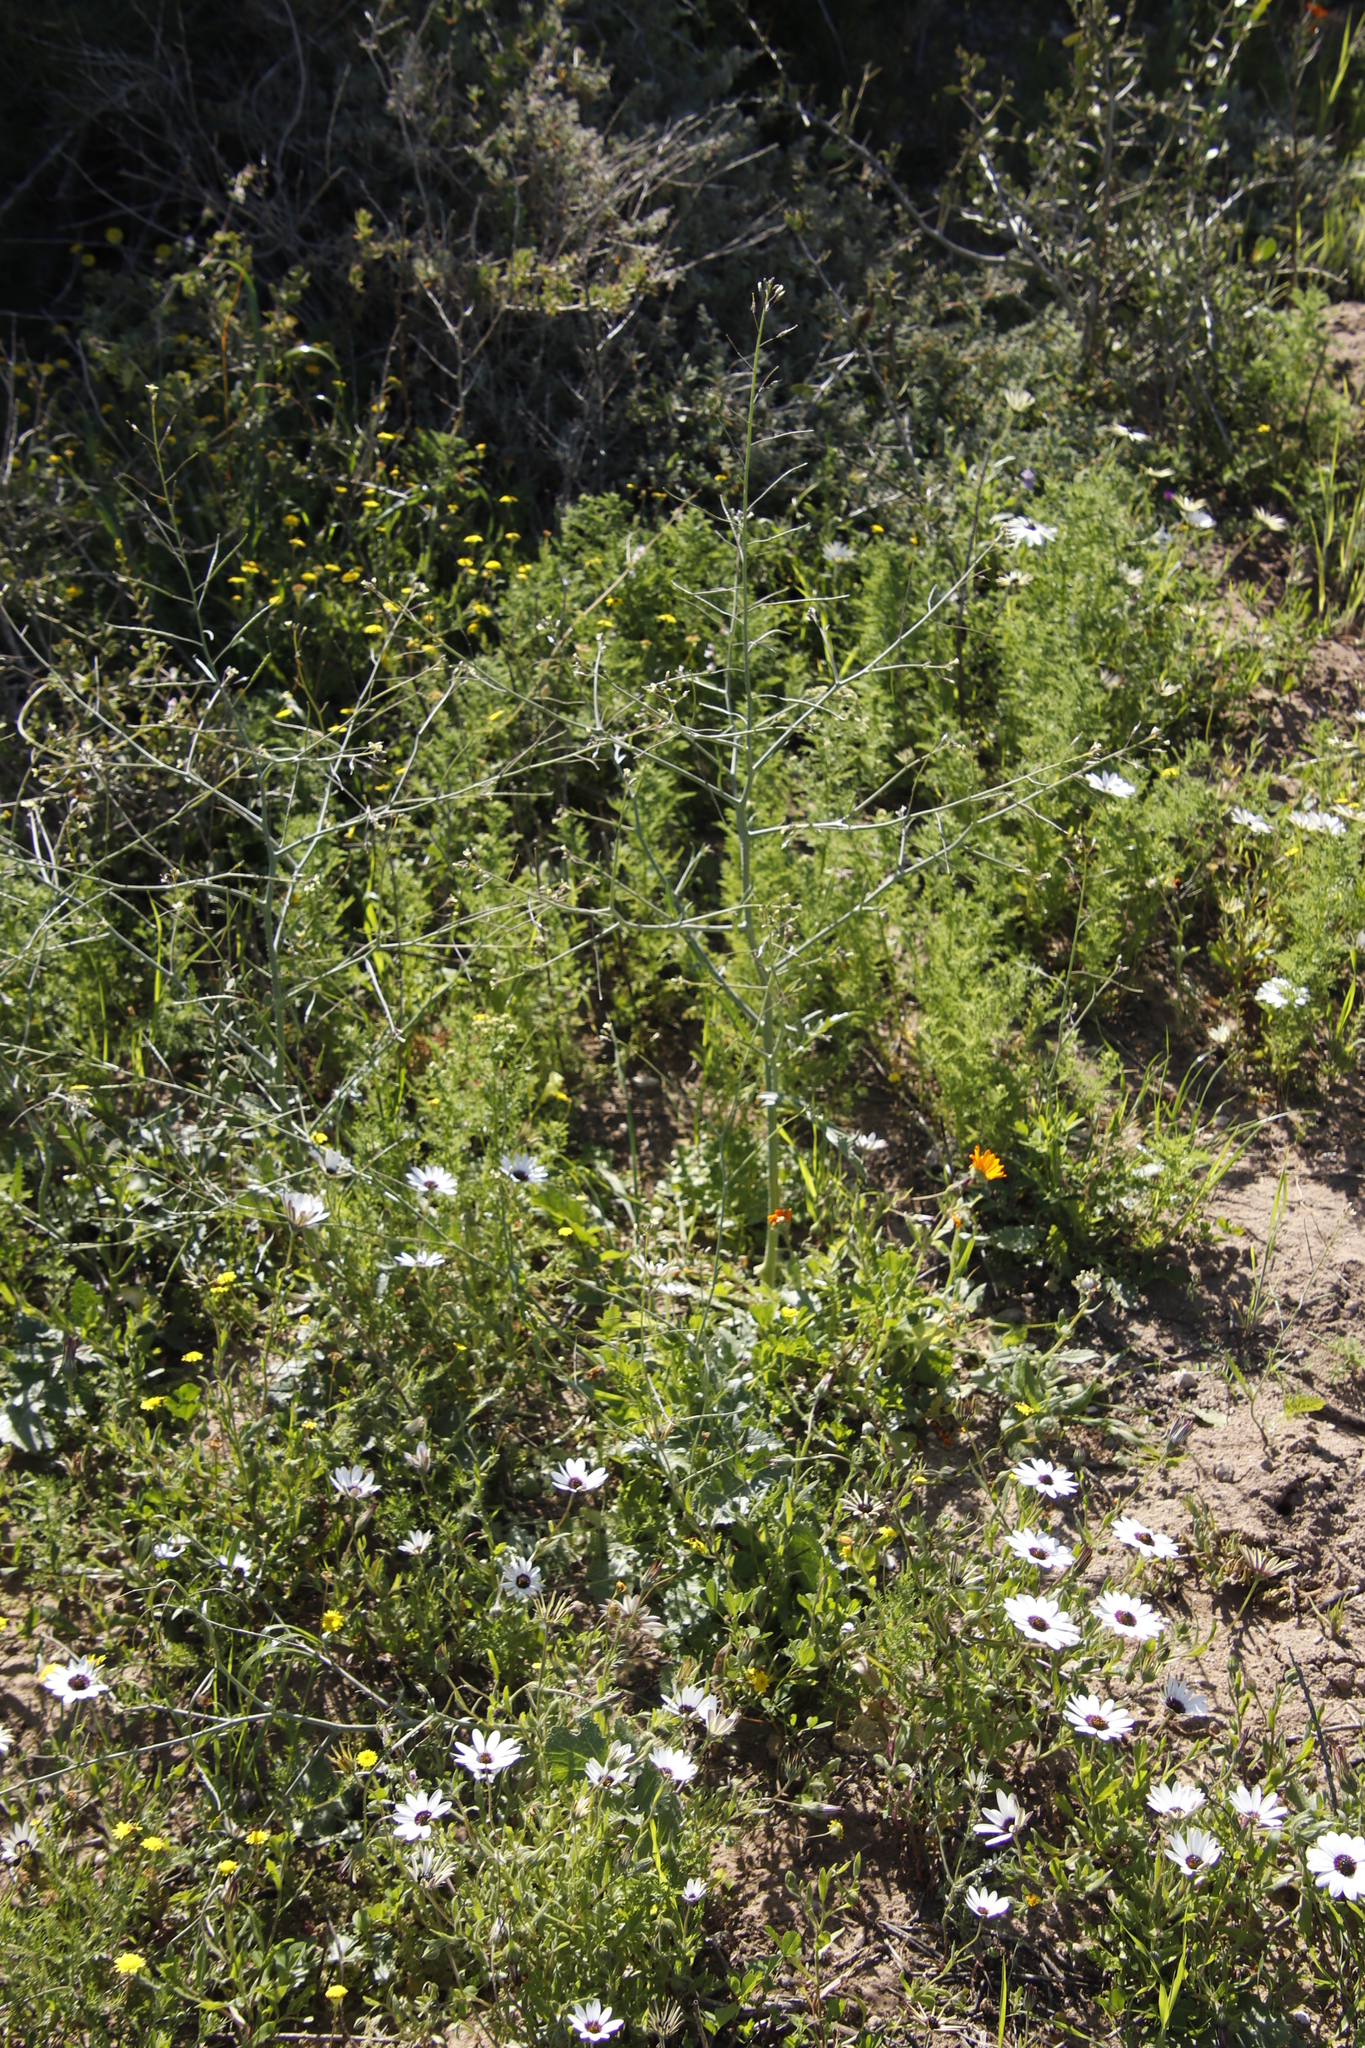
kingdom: Plantae
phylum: Tracheophyta
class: Magnoliopsida
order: Brassicales
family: Brassicaceae
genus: Brassica
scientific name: Brassica tournefortii
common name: Pale cabbage
